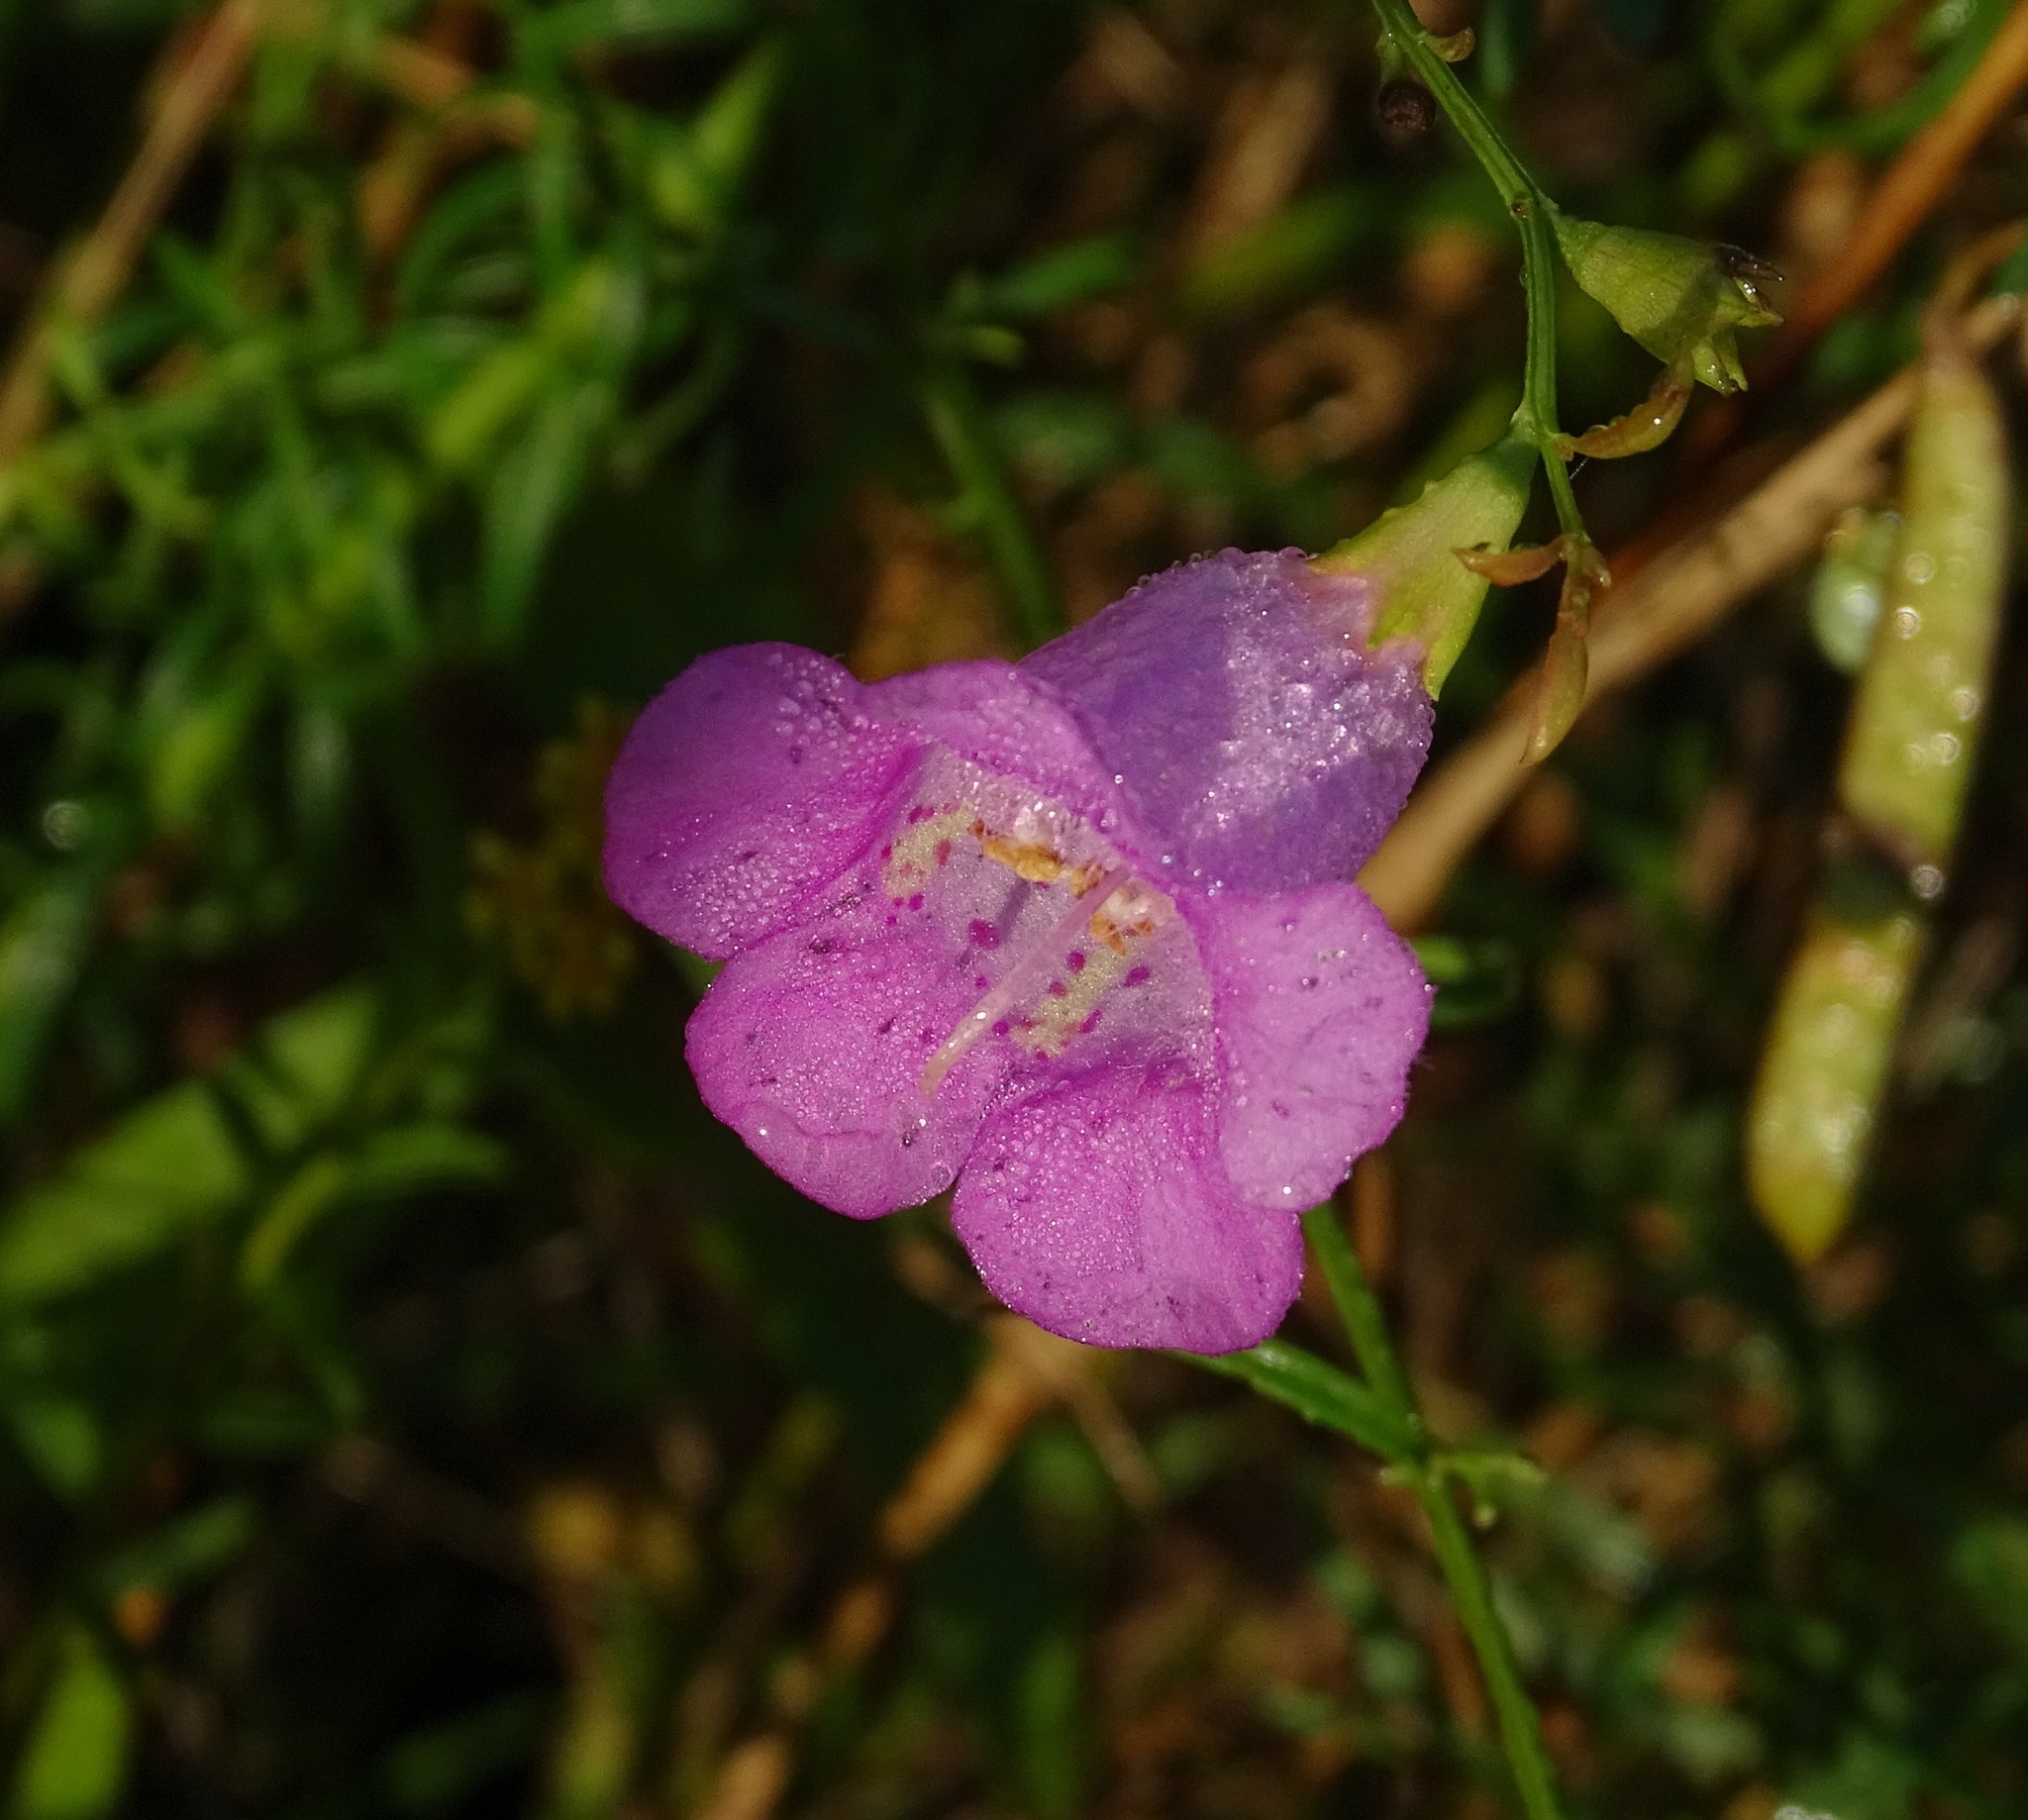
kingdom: Plantae
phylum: Tracheophyta
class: Magnoliopsida
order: Lamiales
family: Orobanchaceae
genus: Agalinis
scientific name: Agalinis purpurea
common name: Purple false foxglove
